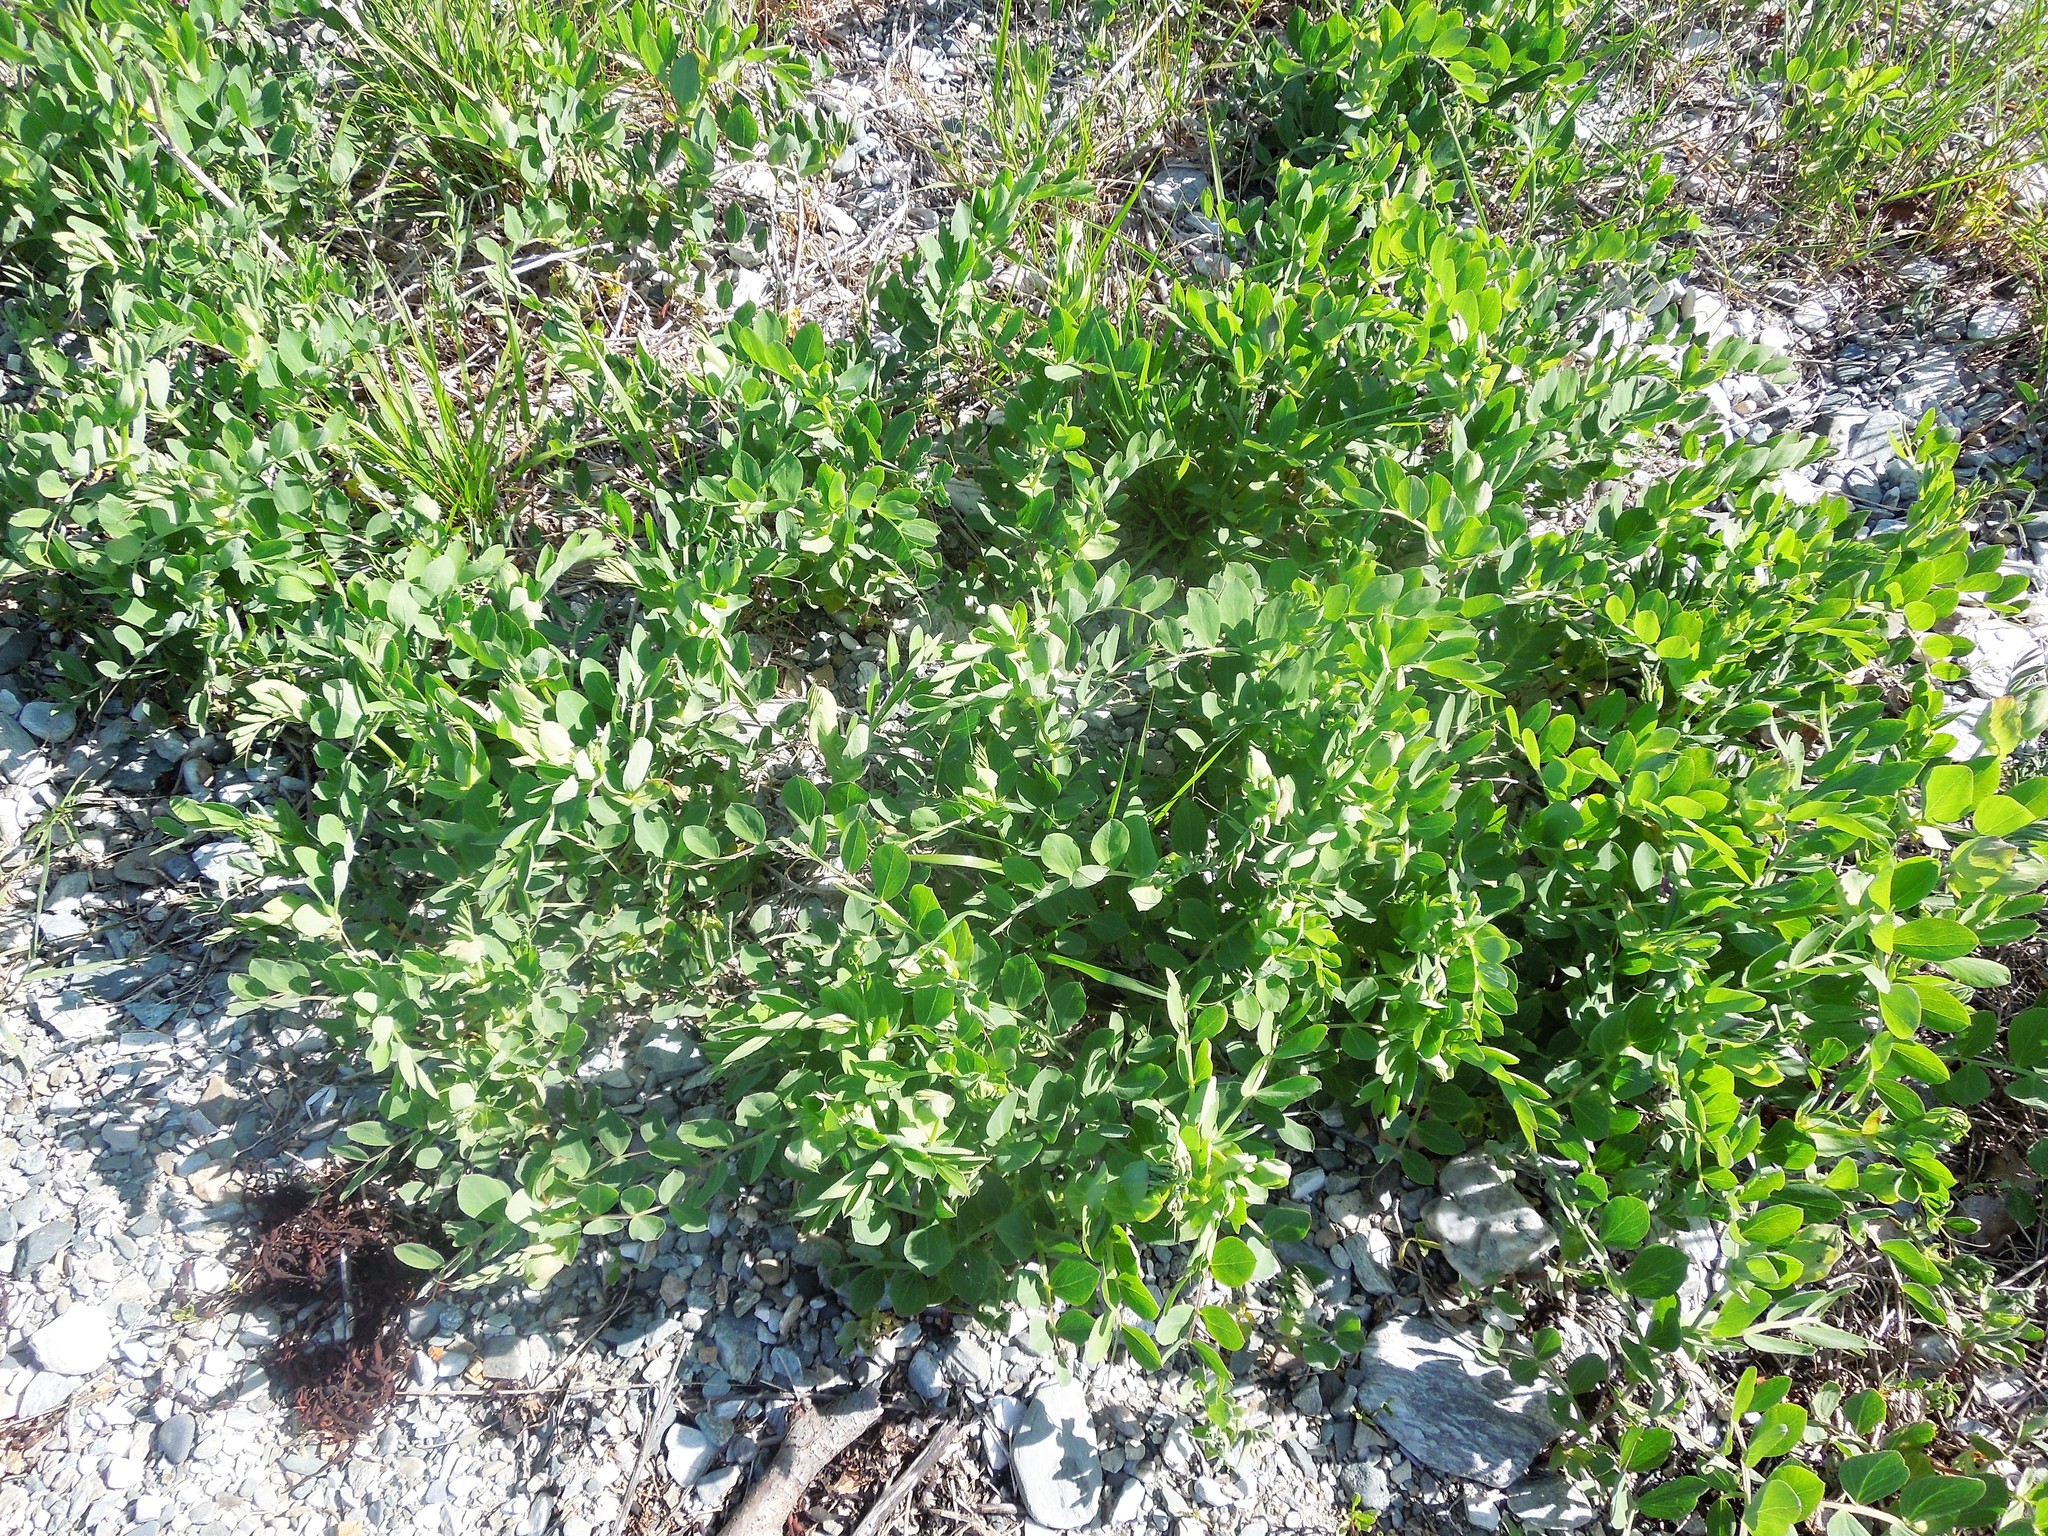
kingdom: Plantae
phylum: Tracheophyta
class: Magnoliopsida
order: Fabales
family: Fabaceae
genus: Lathyrus
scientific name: Lathyrus japonicus
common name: Sea pea
